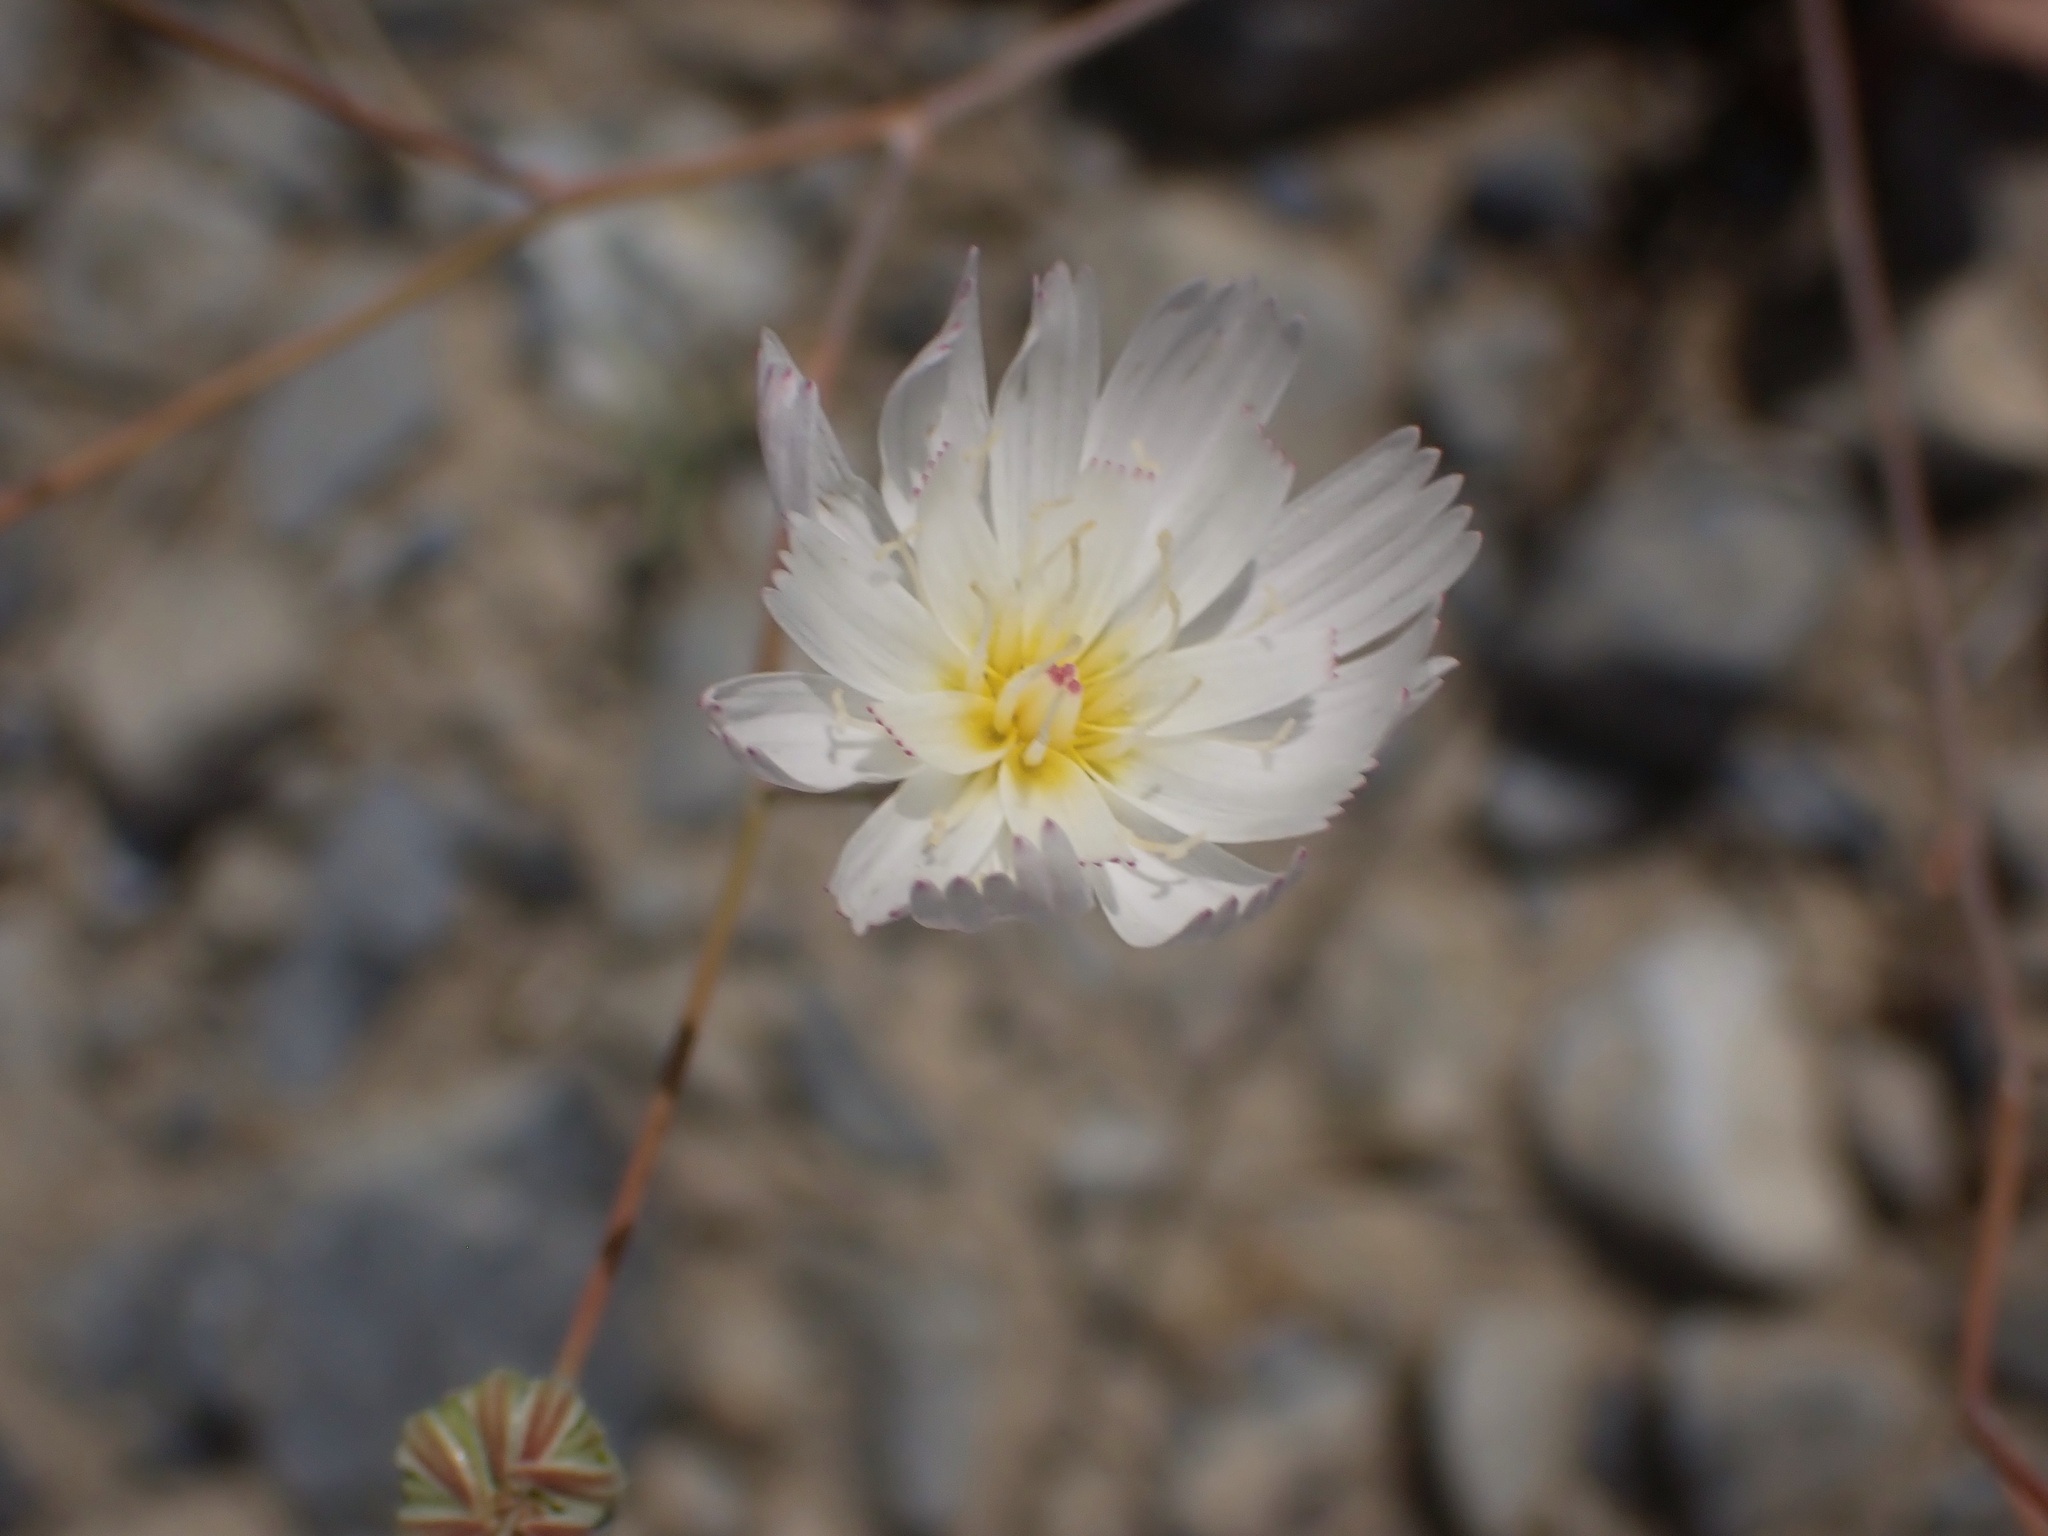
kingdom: Plantae
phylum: Tracheophyta
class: Magnoliopsida
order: Asterales
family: Asteraceae
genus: Atrichoseris
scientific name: Atrichoseris platyphylla
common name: Tobaccoweed
